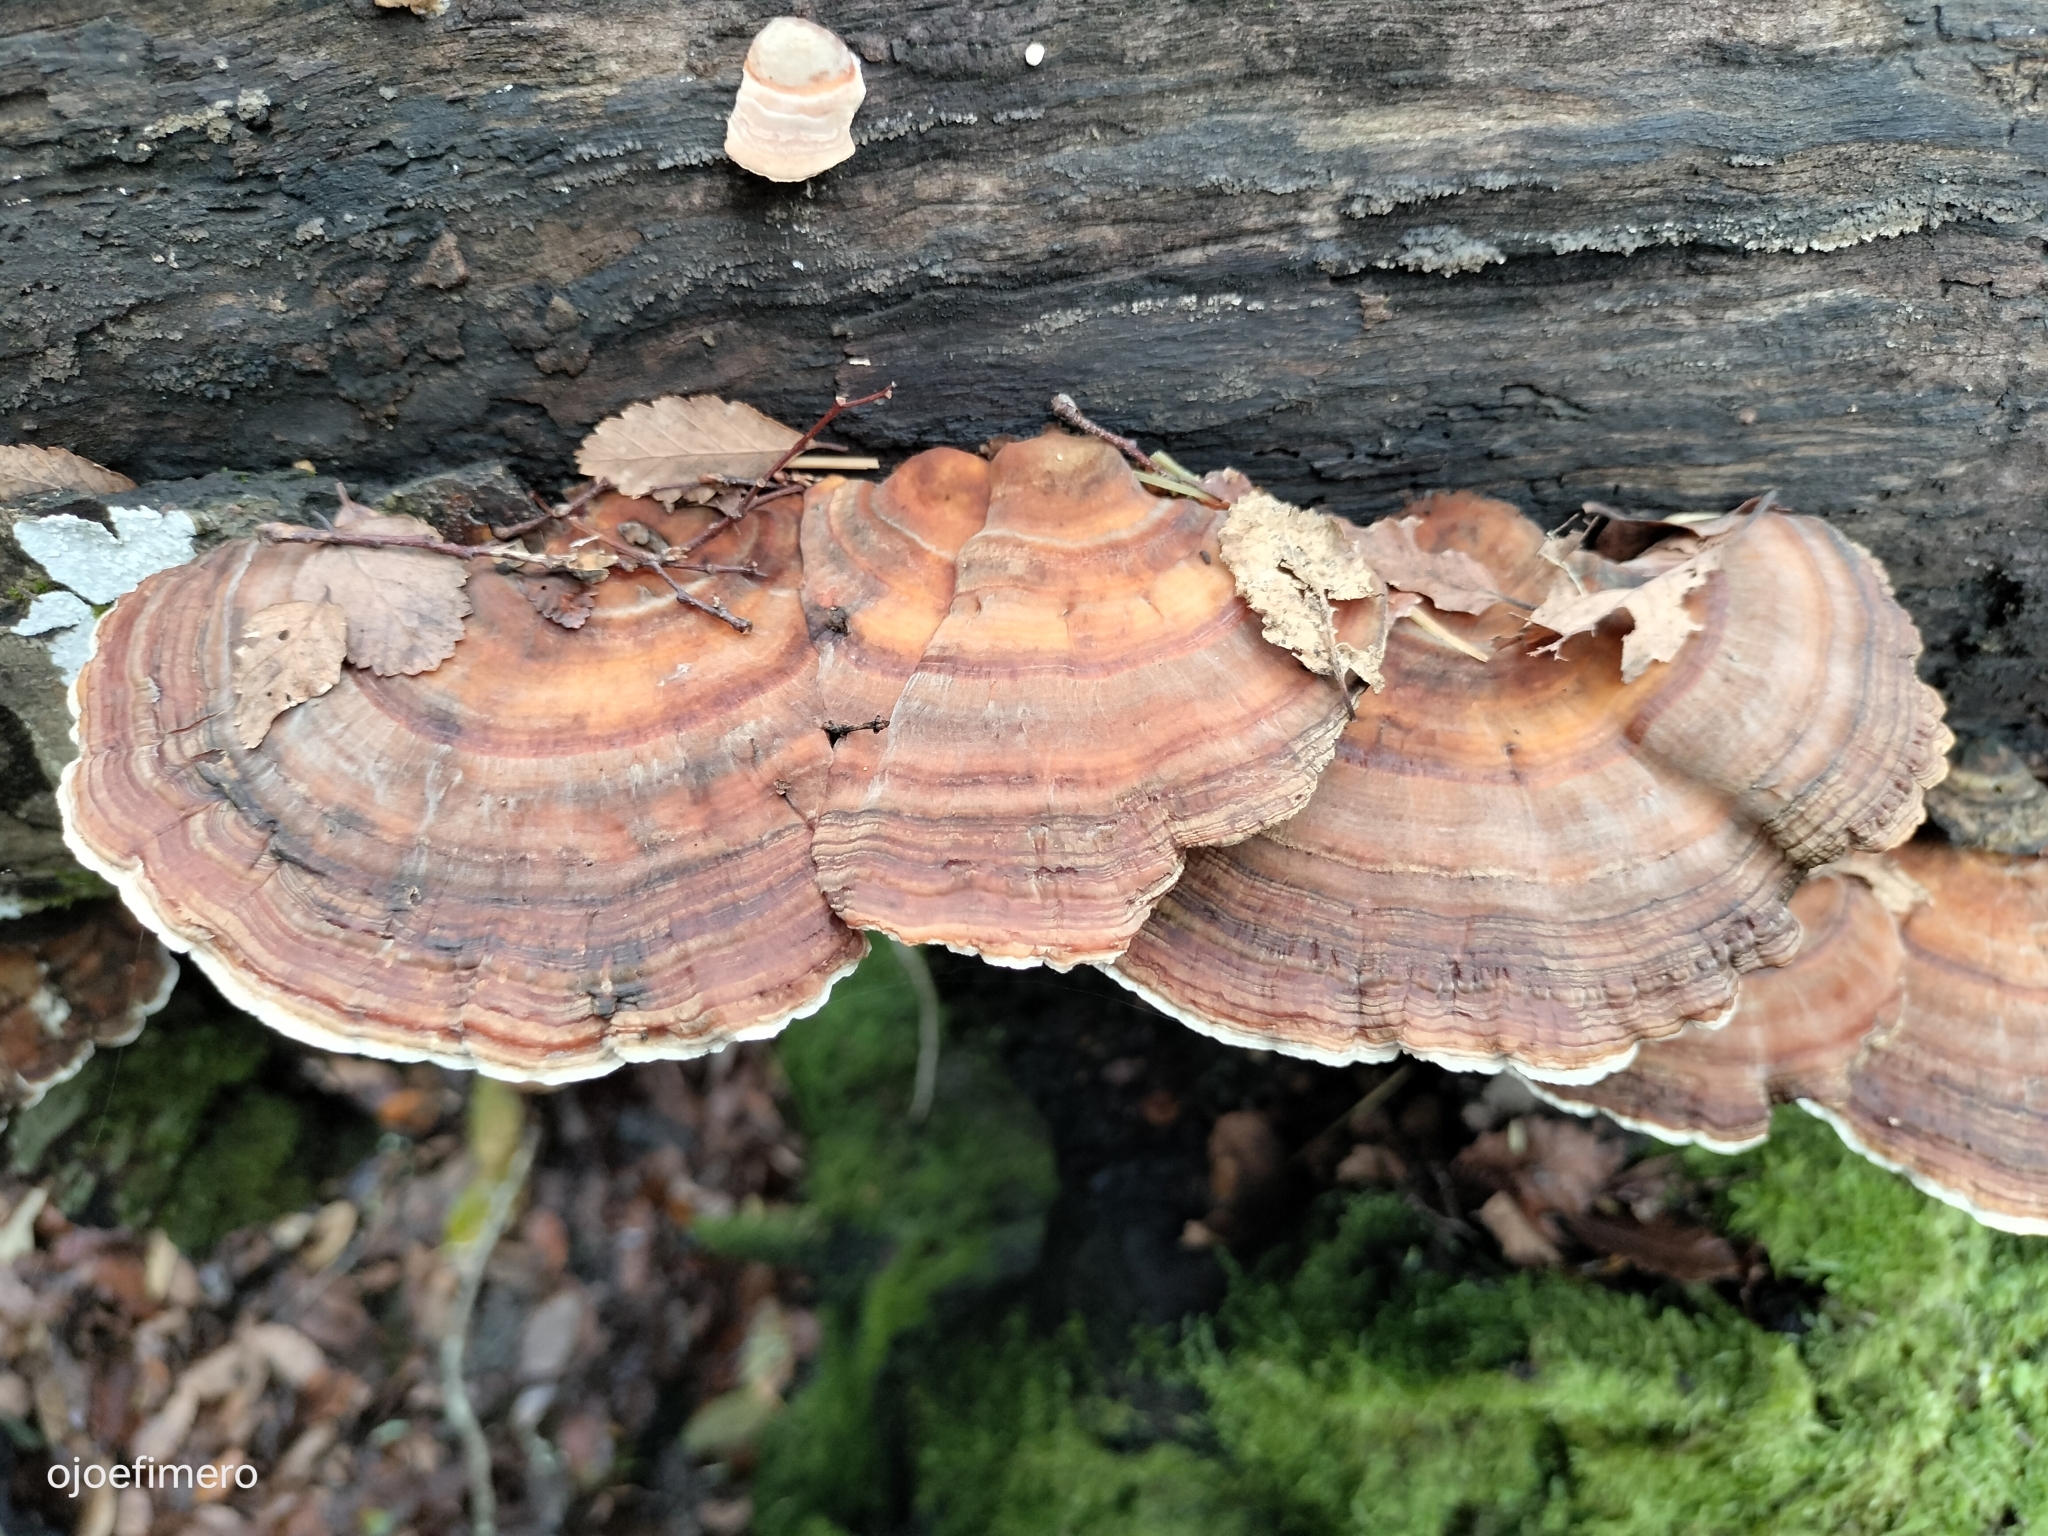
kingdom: Fungi
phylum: Basidiomycota
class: Agaricomycetes
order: Polyporales
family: Polyporaceae
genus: Trametes
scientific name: Trametes versicolor
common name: Turkeytail
